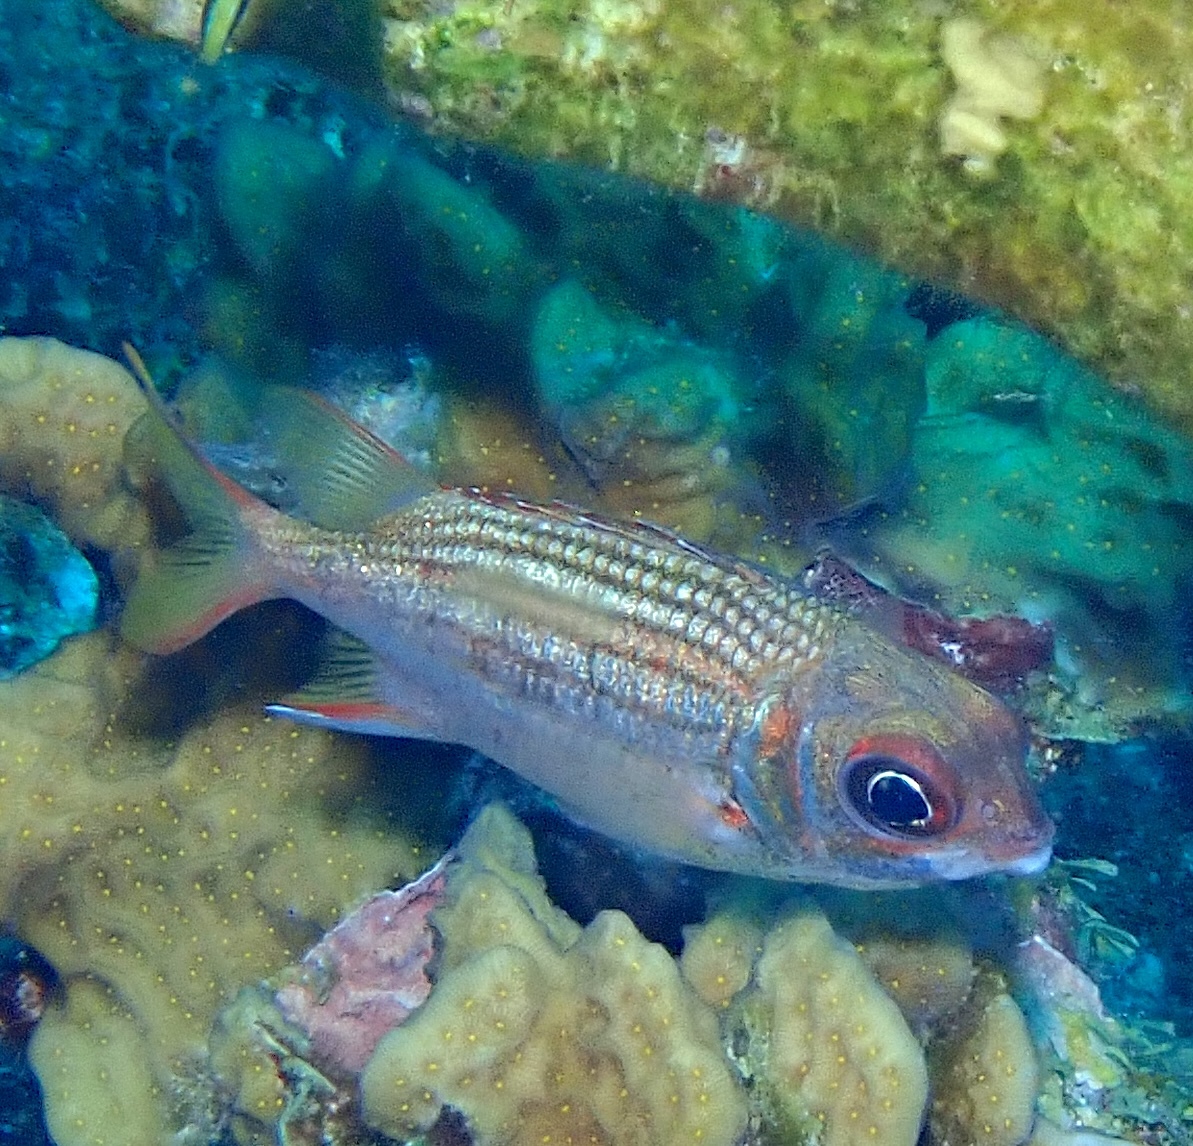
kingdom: Animalia
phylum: Chordata
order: Beryciformes
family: Holocentridae
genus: Neoniphon
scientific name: Neoniphon vexillarium
